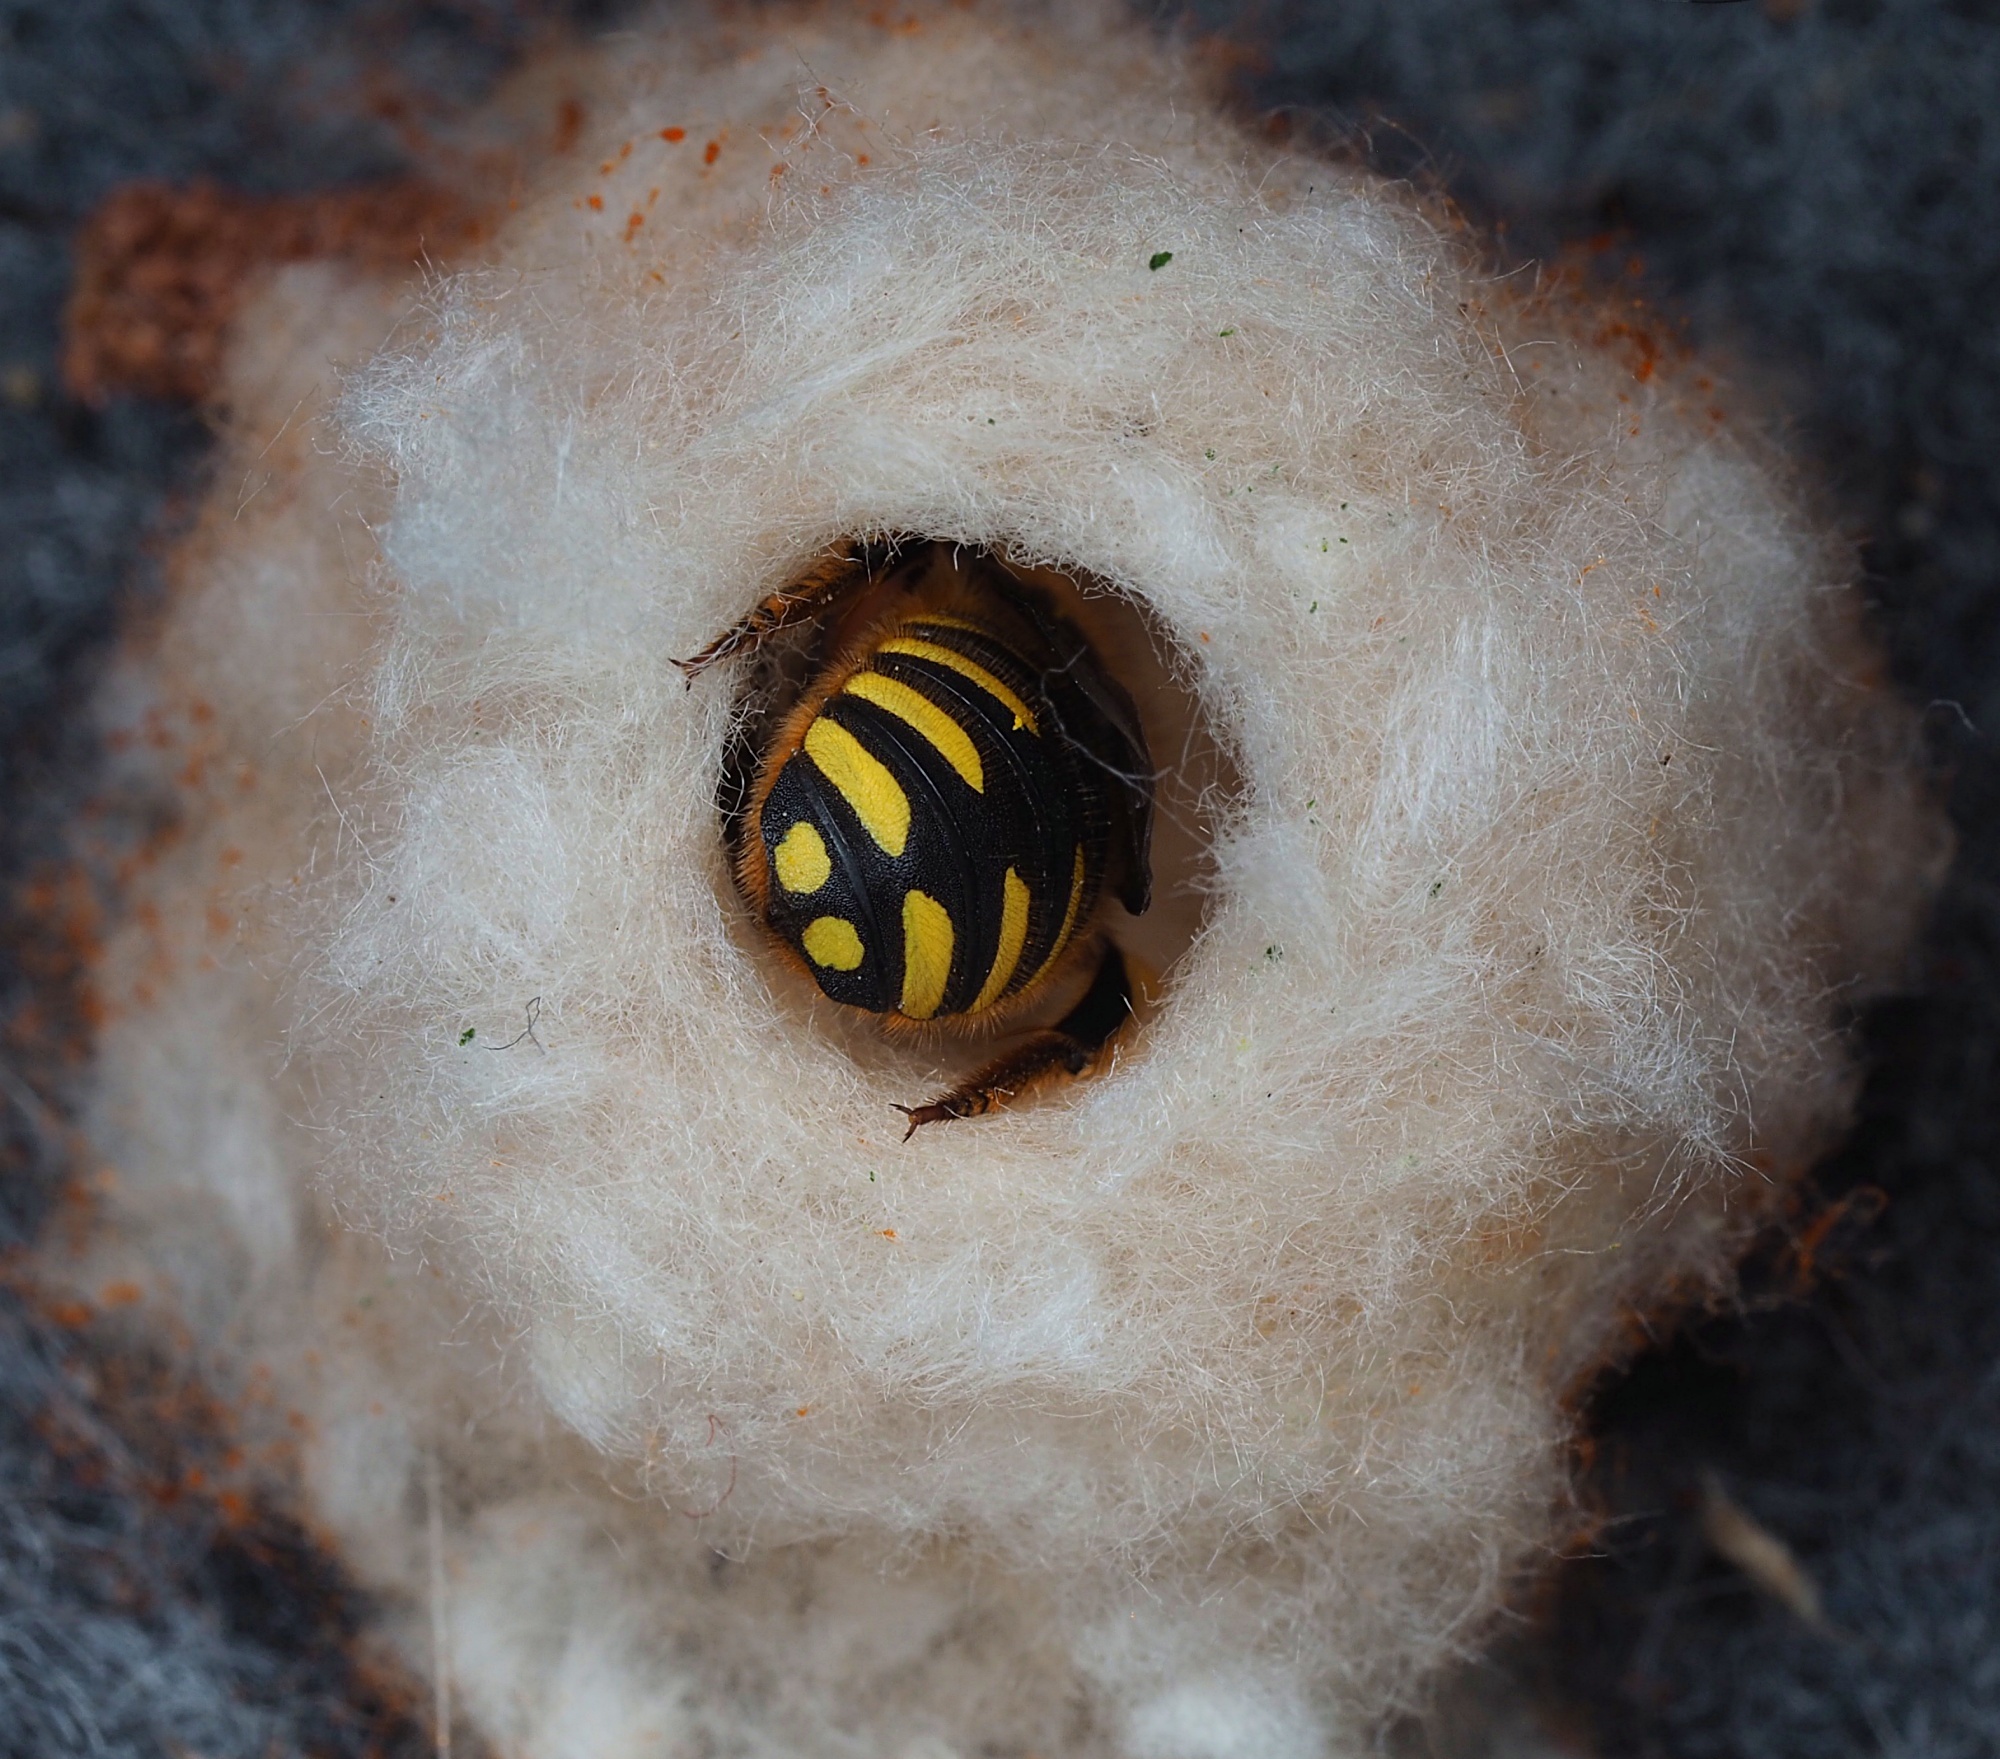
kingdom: Animalia
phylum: Arthropoda
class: Insecta
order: Hymenoptera
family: Megachilidae
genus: Anthidium
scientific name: Anthidium manicatum
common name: Wool carder bee
